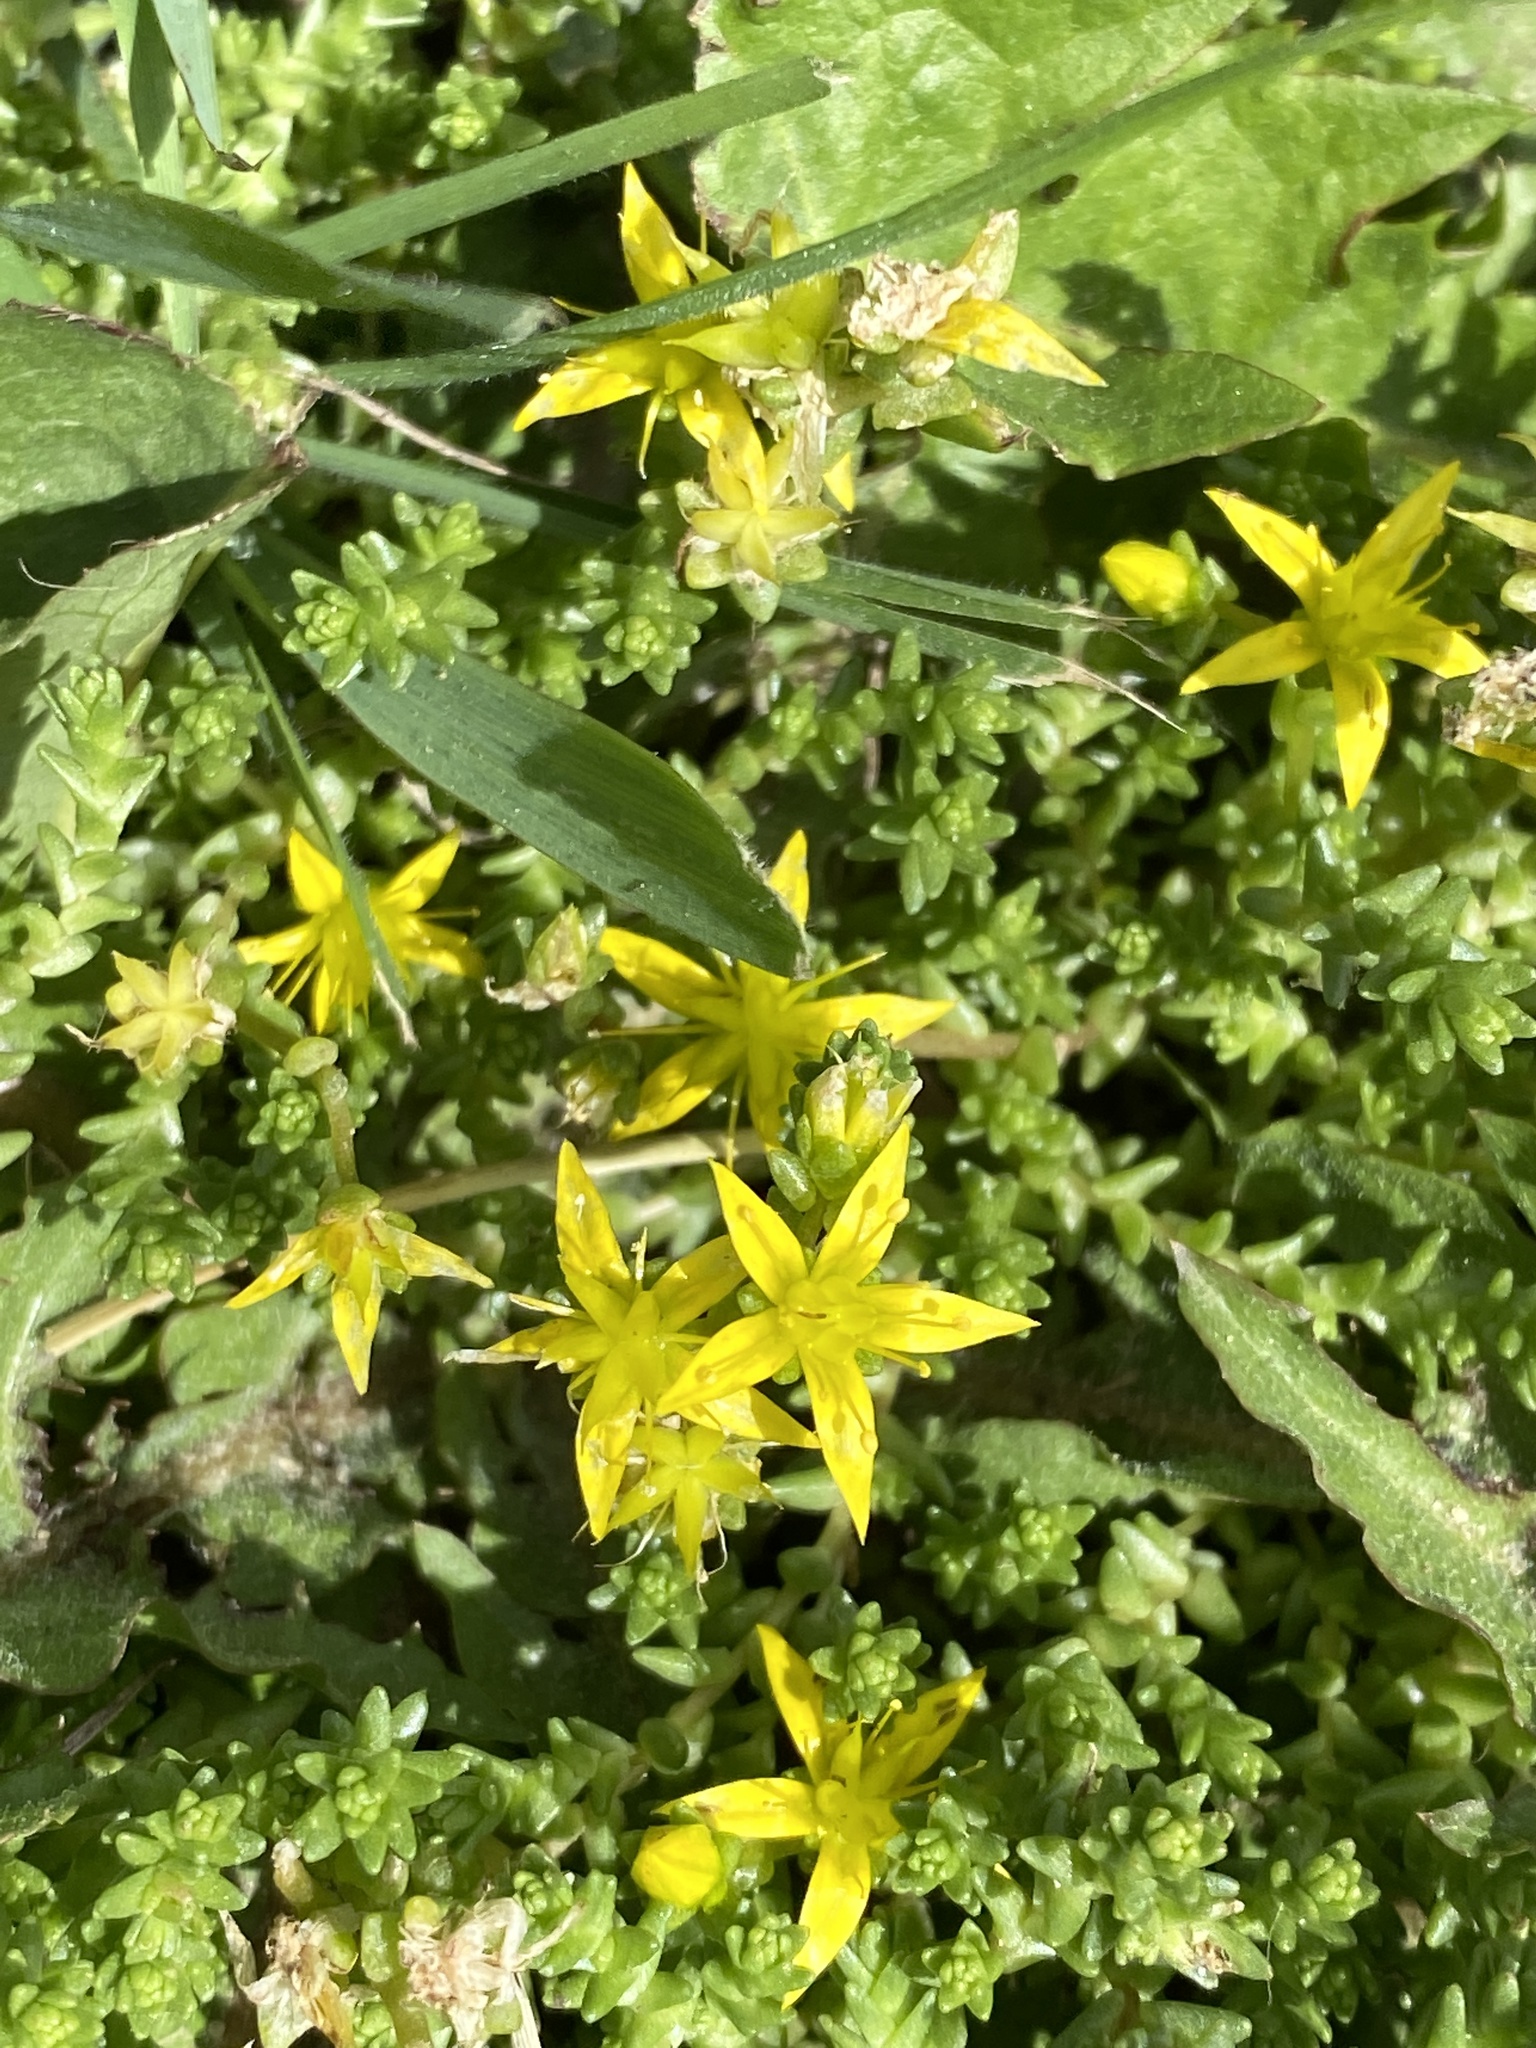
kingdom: Plantae
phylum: Tracheophyta
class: Magnoliopsida
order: Saxifragales
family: Crassulaceae
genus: Sedum
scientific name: Sedum acre
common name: Biting stonecrop
